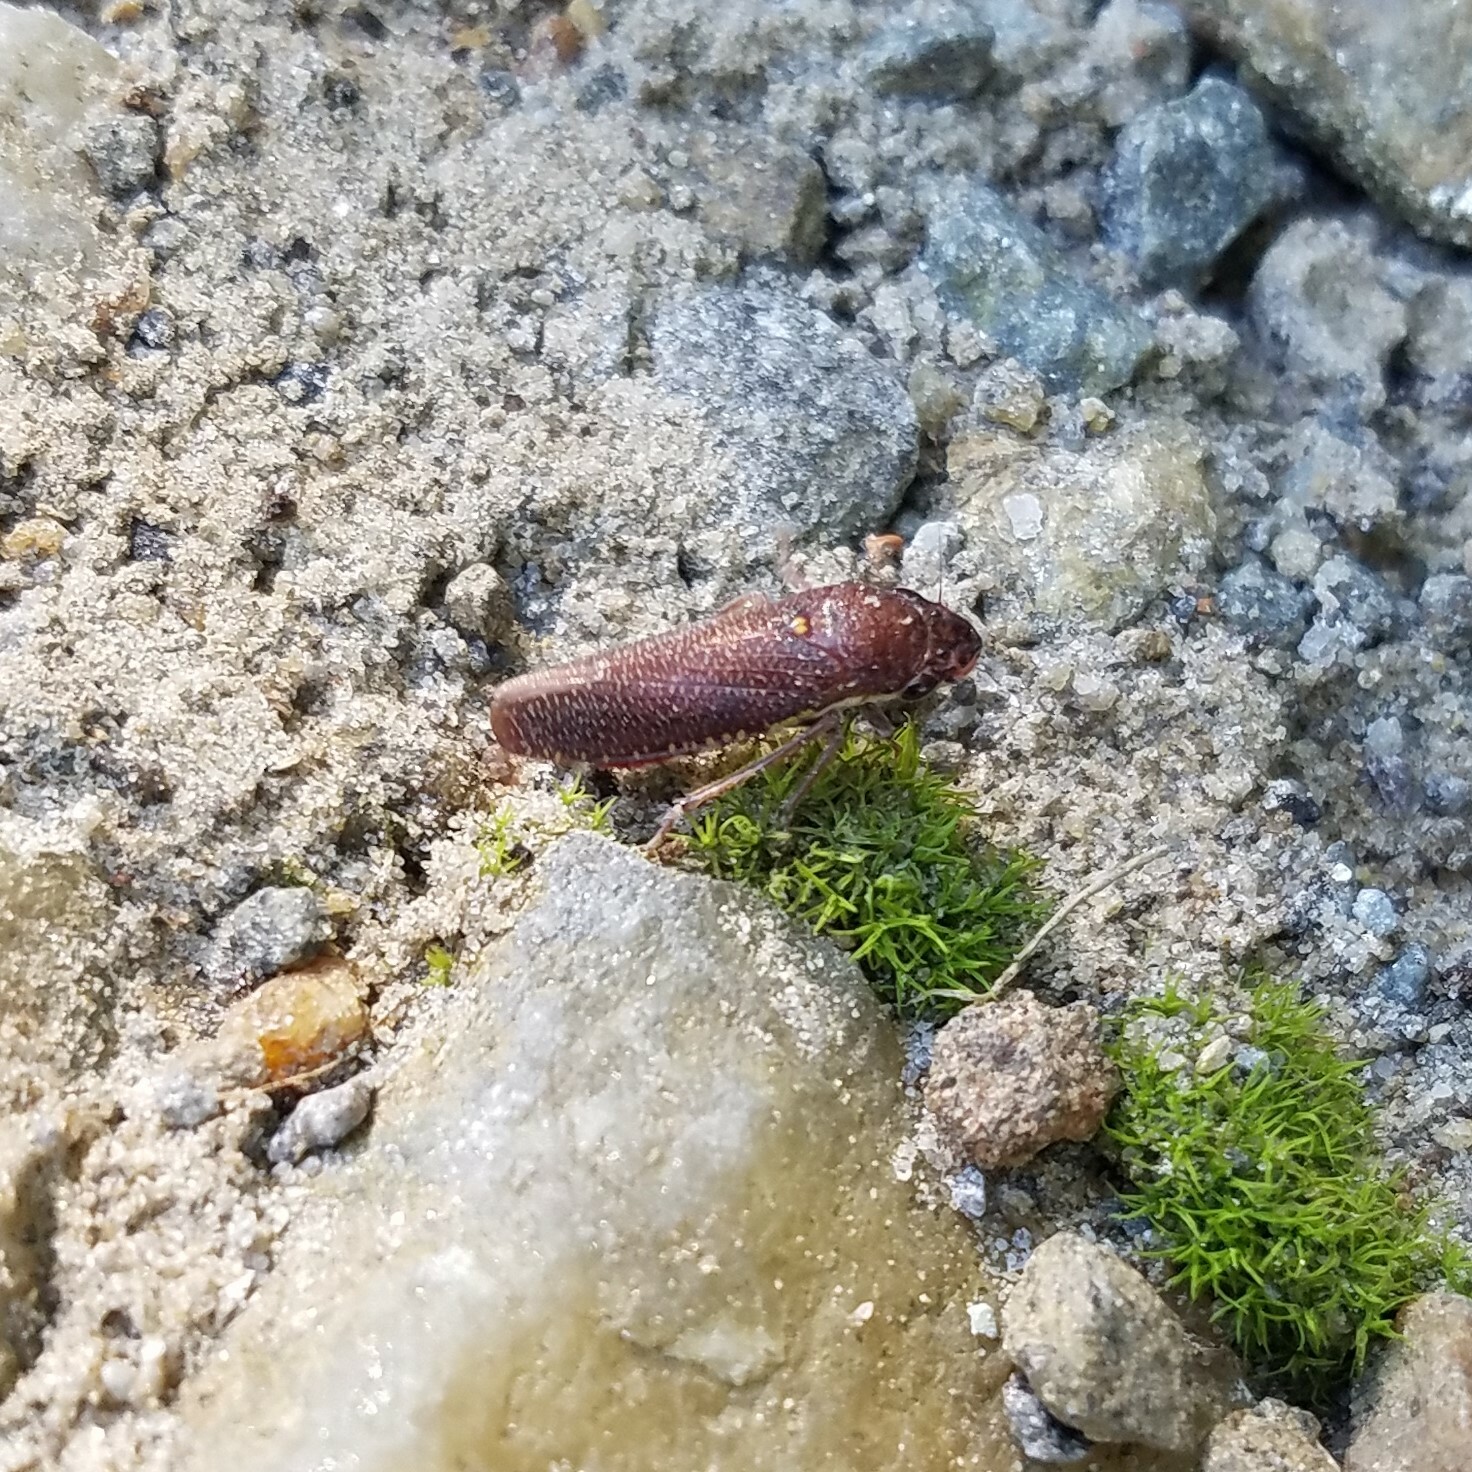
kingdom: Animalia
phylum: Arthropoda
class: Insecta
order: Hemiptera
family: Cicadellidae
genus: Paraulacizes
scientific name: Paraulacizes irrorata
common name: Speckled sharpshooter
